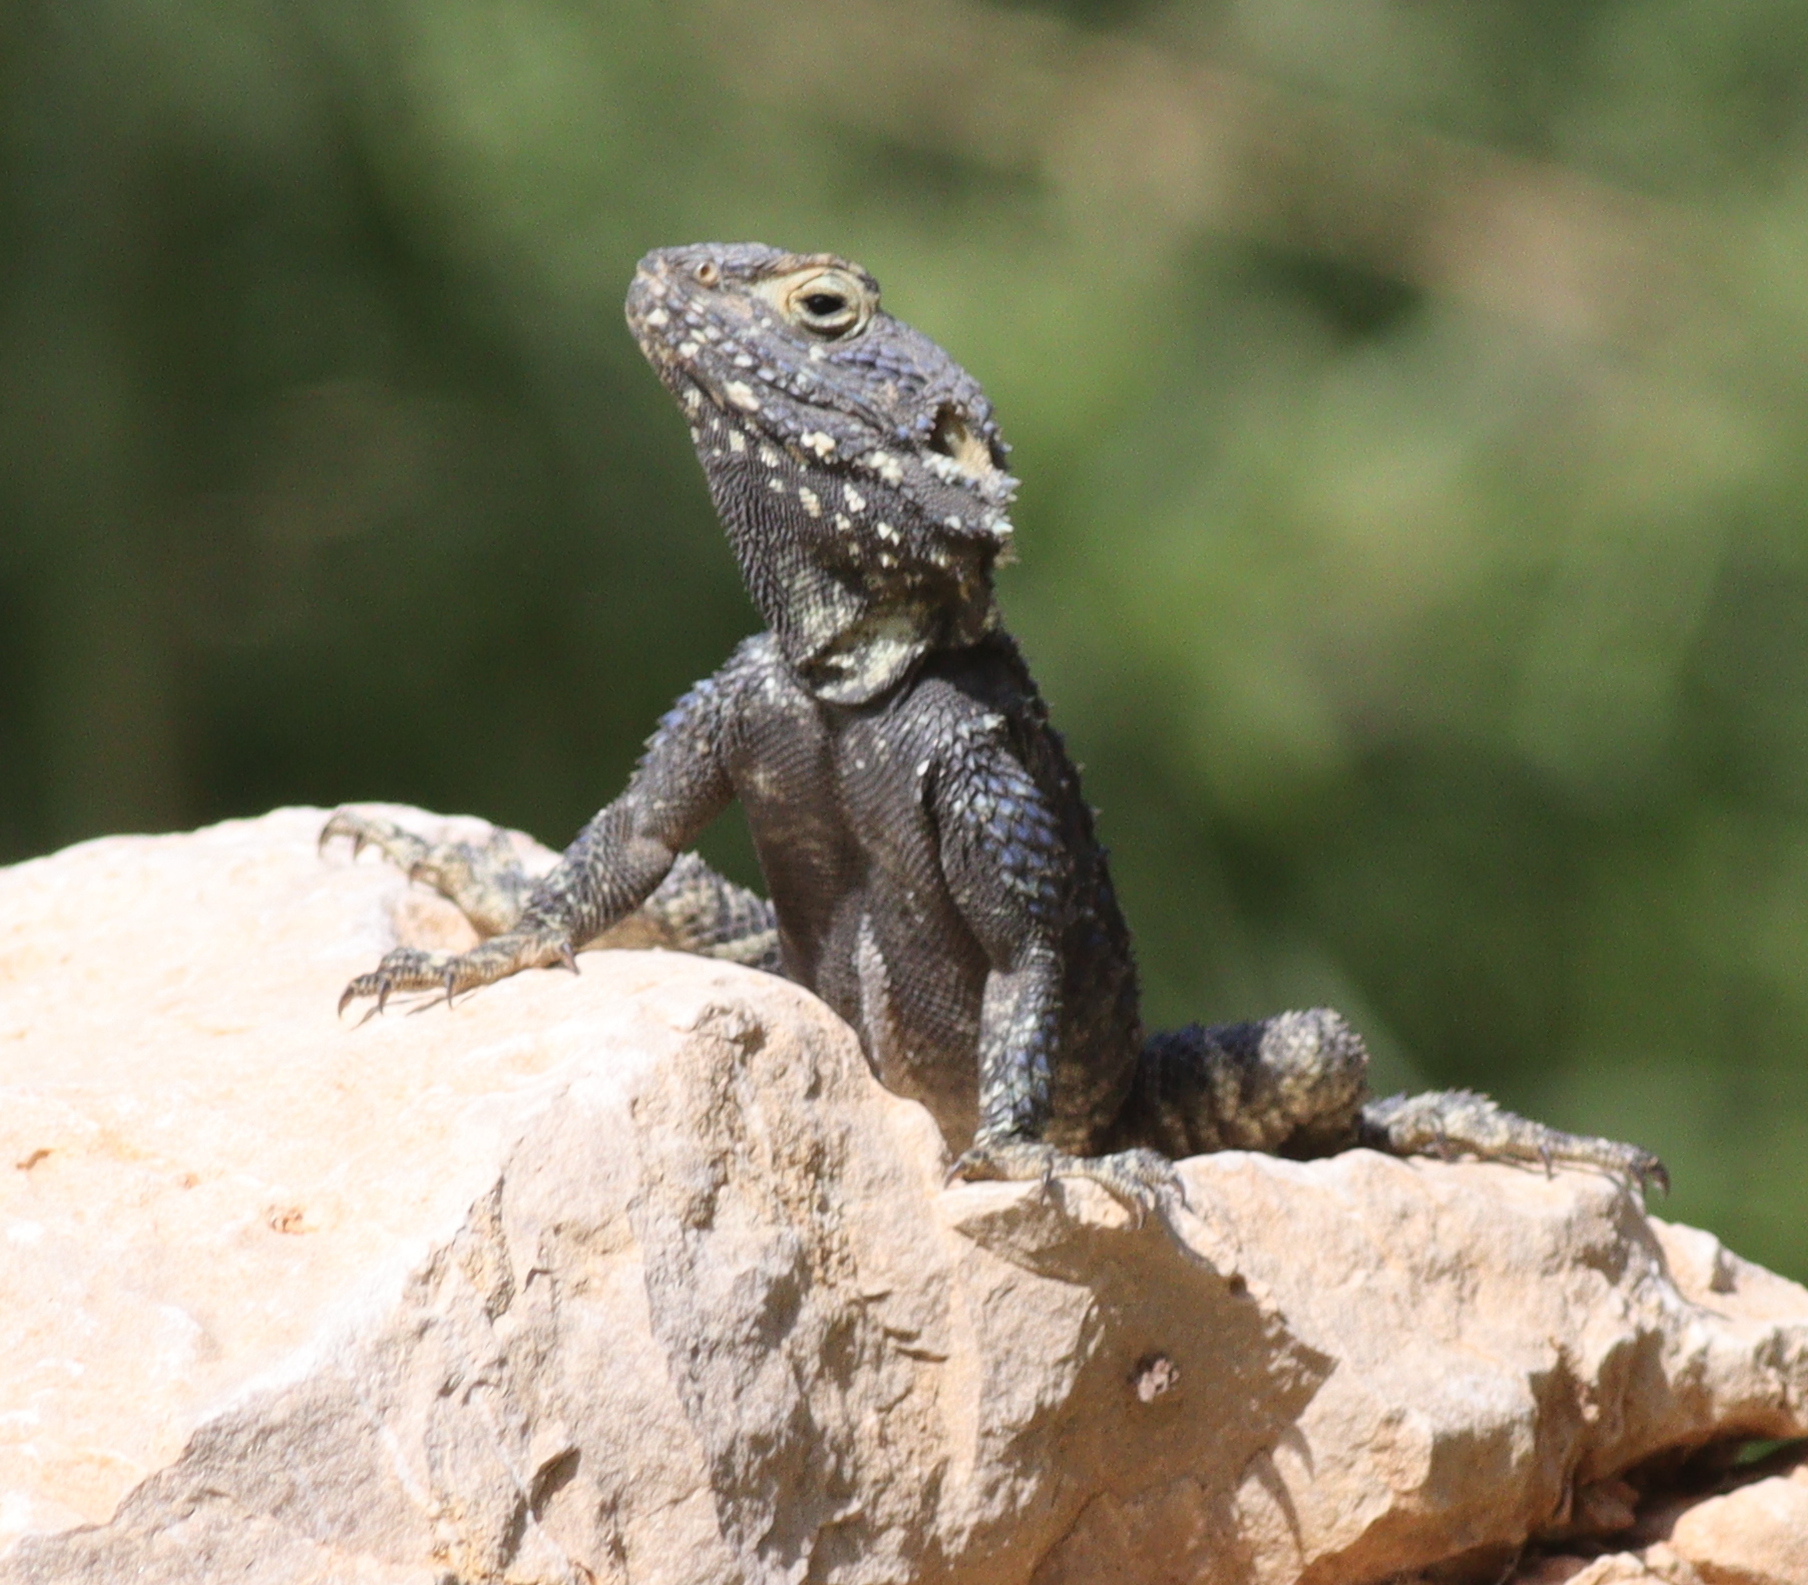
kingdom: Animalia
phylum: Chordata
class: Squamata
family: Agamidae
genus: Stellagama
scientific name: Stellagama stellio
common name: Starred agama
